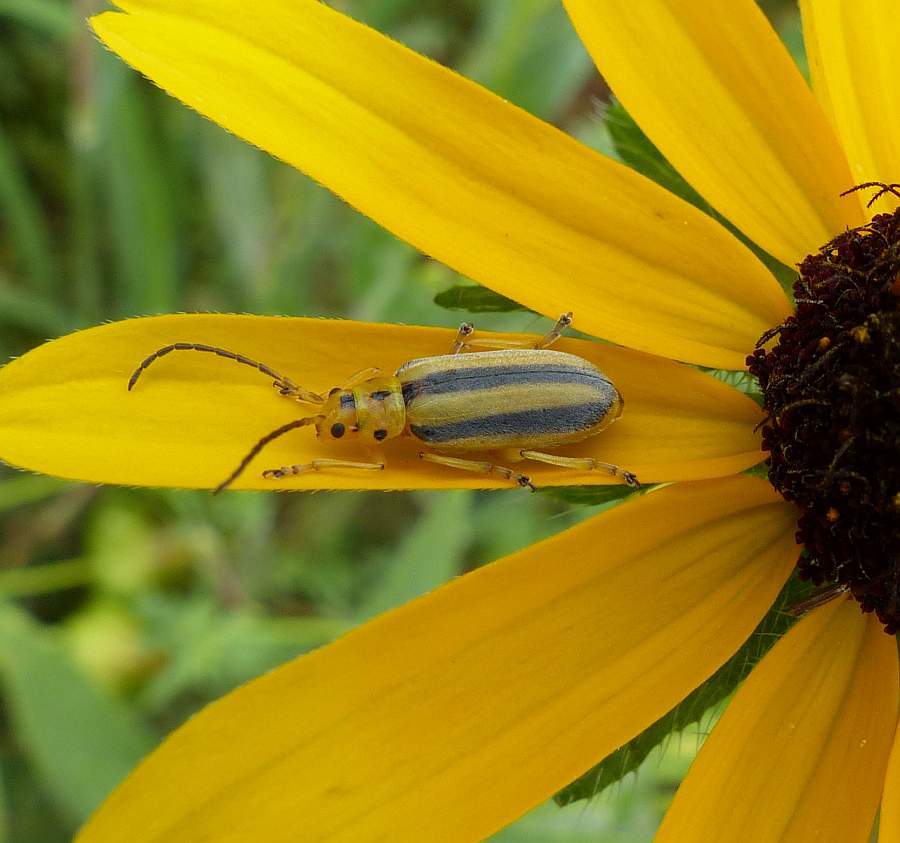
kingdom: Animalia
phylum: Arthropoda
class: Insecta
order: Coleoptera
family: Chrysomelidae
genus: Trirhabda
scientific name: Trirhabda canadensis
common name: Goldenrod leaf beetle
